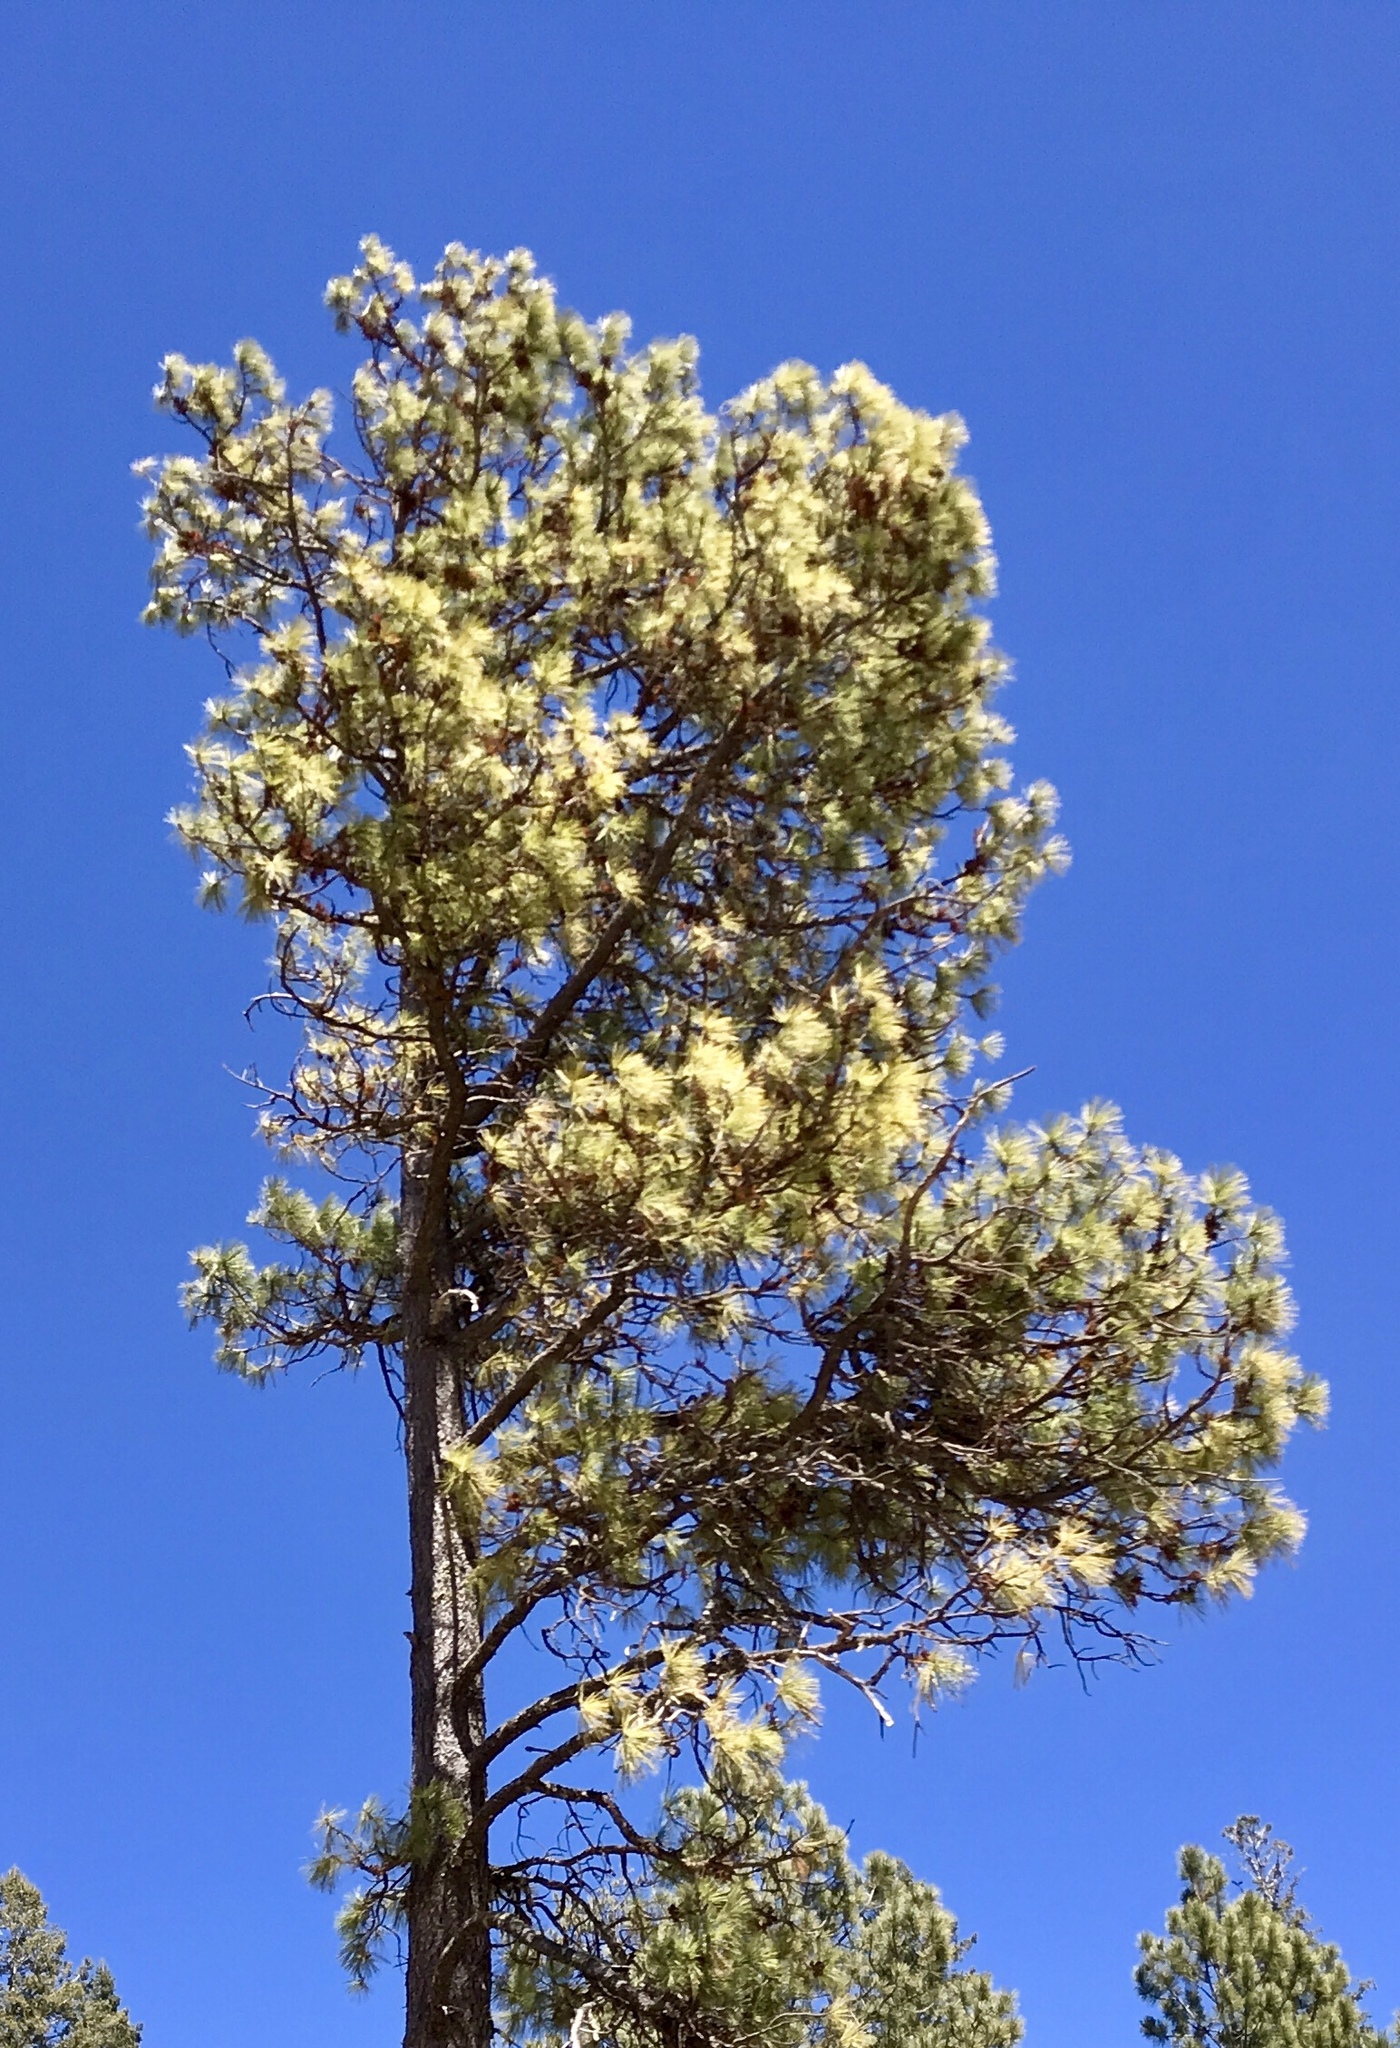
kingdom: Plantae
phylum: Tracheophyta
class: Pinopsida
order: Pinales
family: Pinaceae
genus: Pinus
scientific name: Pinus ponderosa
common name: Western yellow-pine
